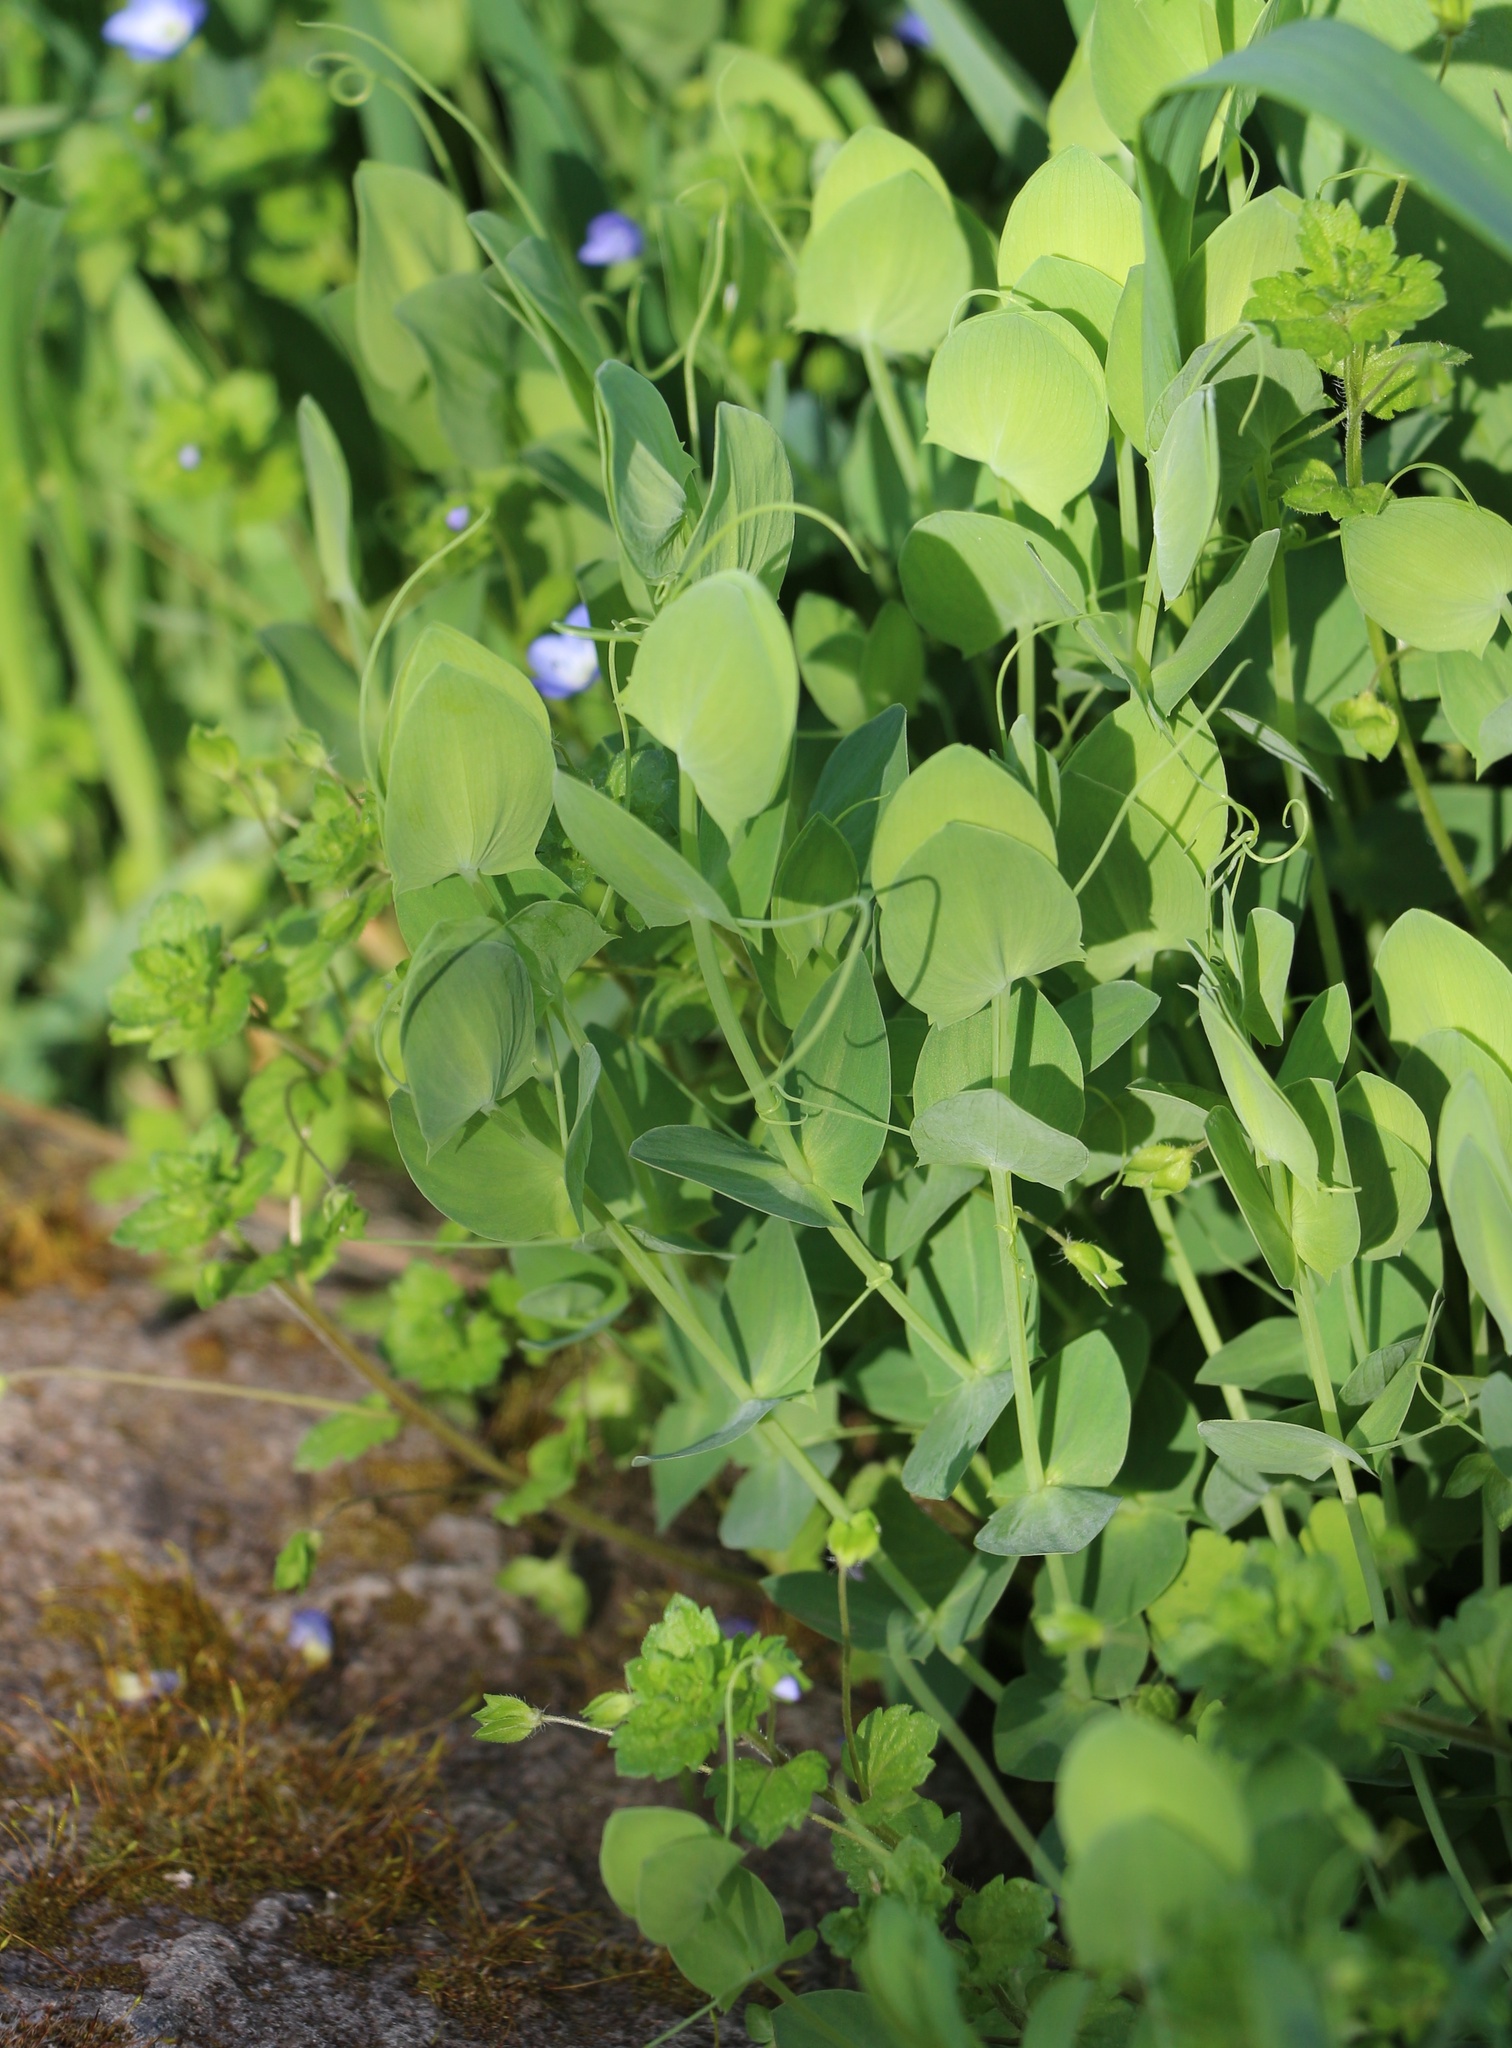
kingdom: Plantae
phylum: Tracheophyta
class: Magnoliopsida
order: Fabales
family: Fabaceae
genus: Lathyrus
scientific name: Lathyrus aphaca
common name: Yellow vetchling
